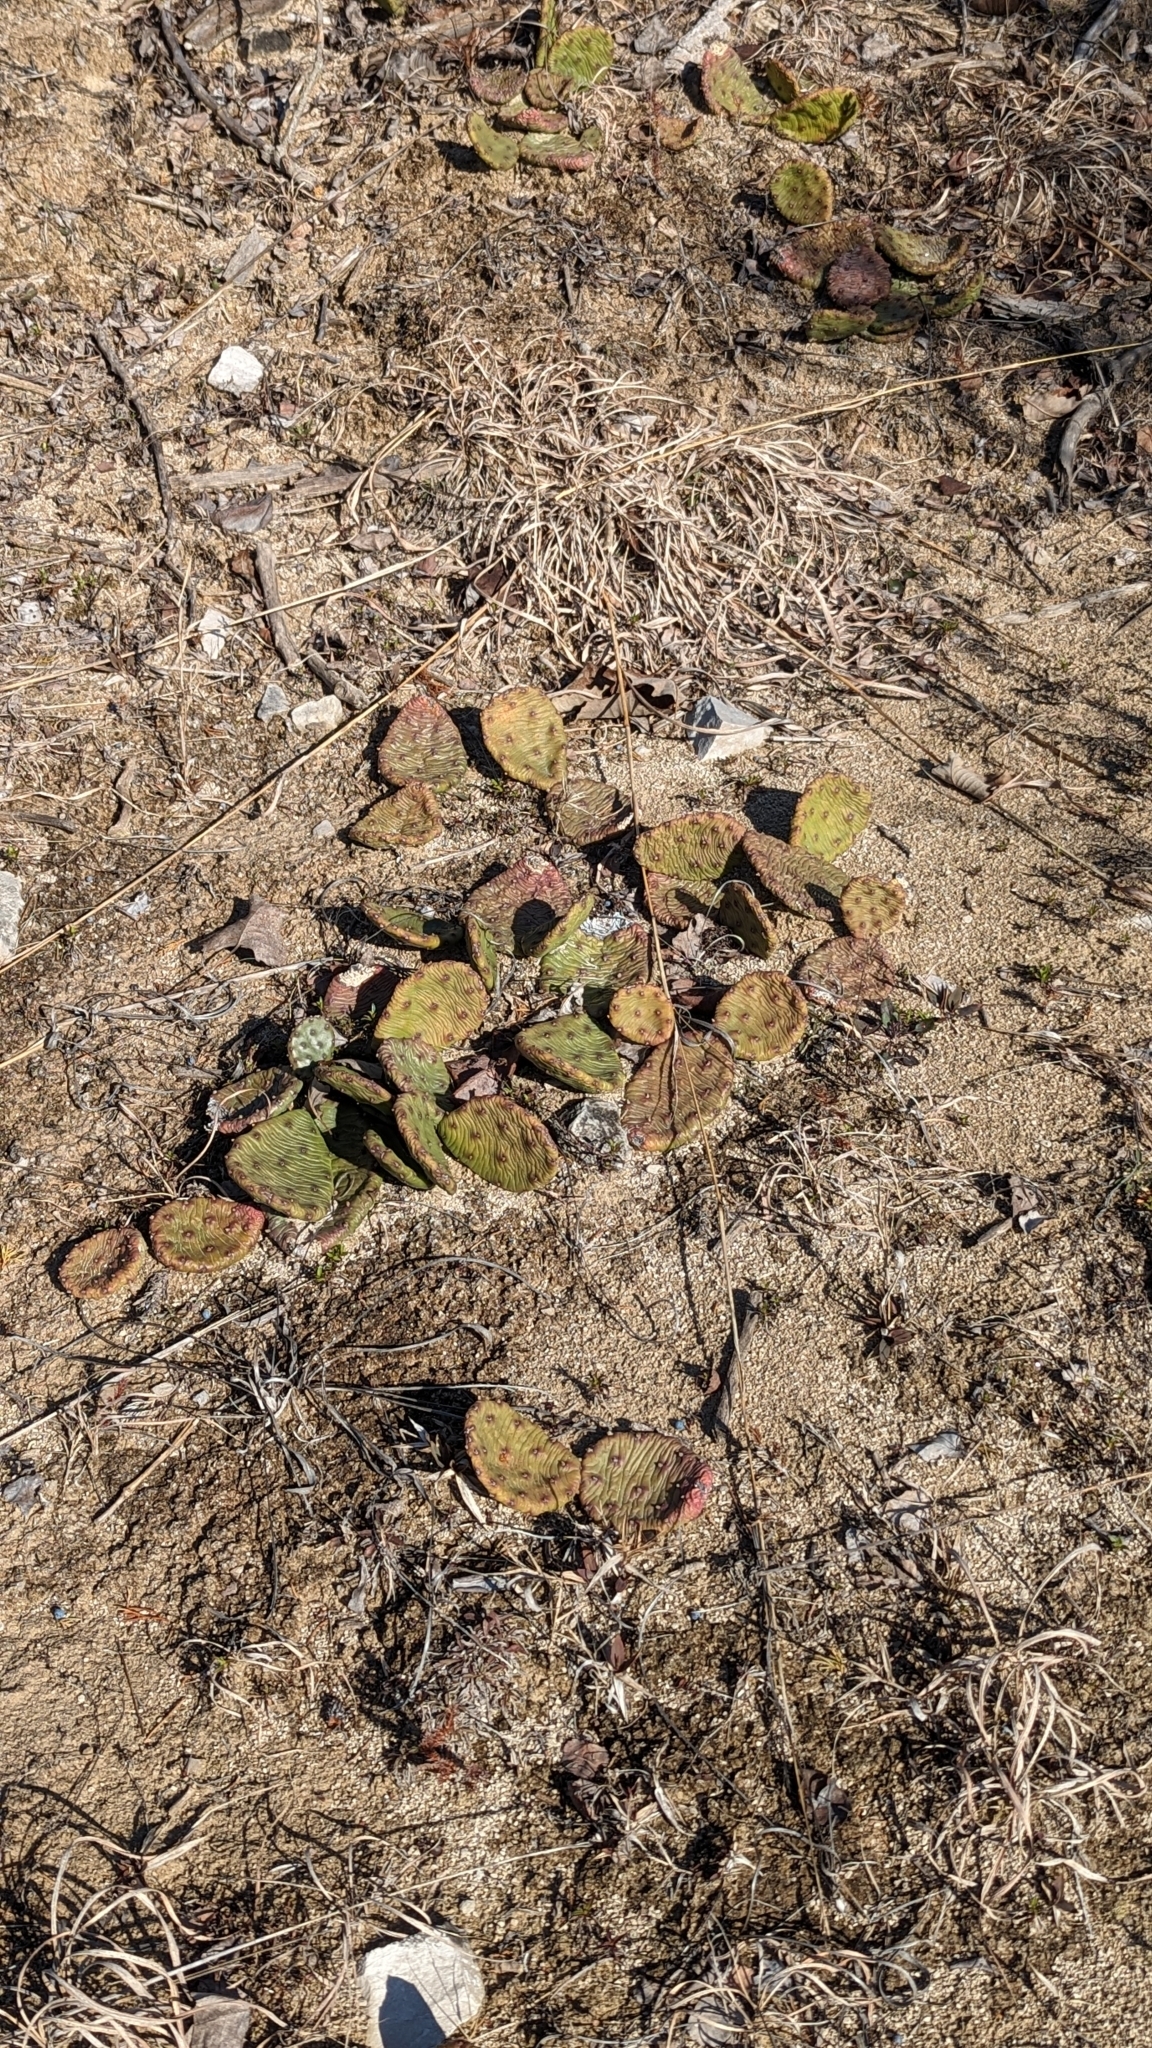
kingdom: Plantae
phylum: Tracheophyta
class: Magnoliopsida
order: Caryophyllales
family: Cactaceae
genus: Opuntia
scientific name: Opuntia humifusa
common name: Eastern prickly-pear
